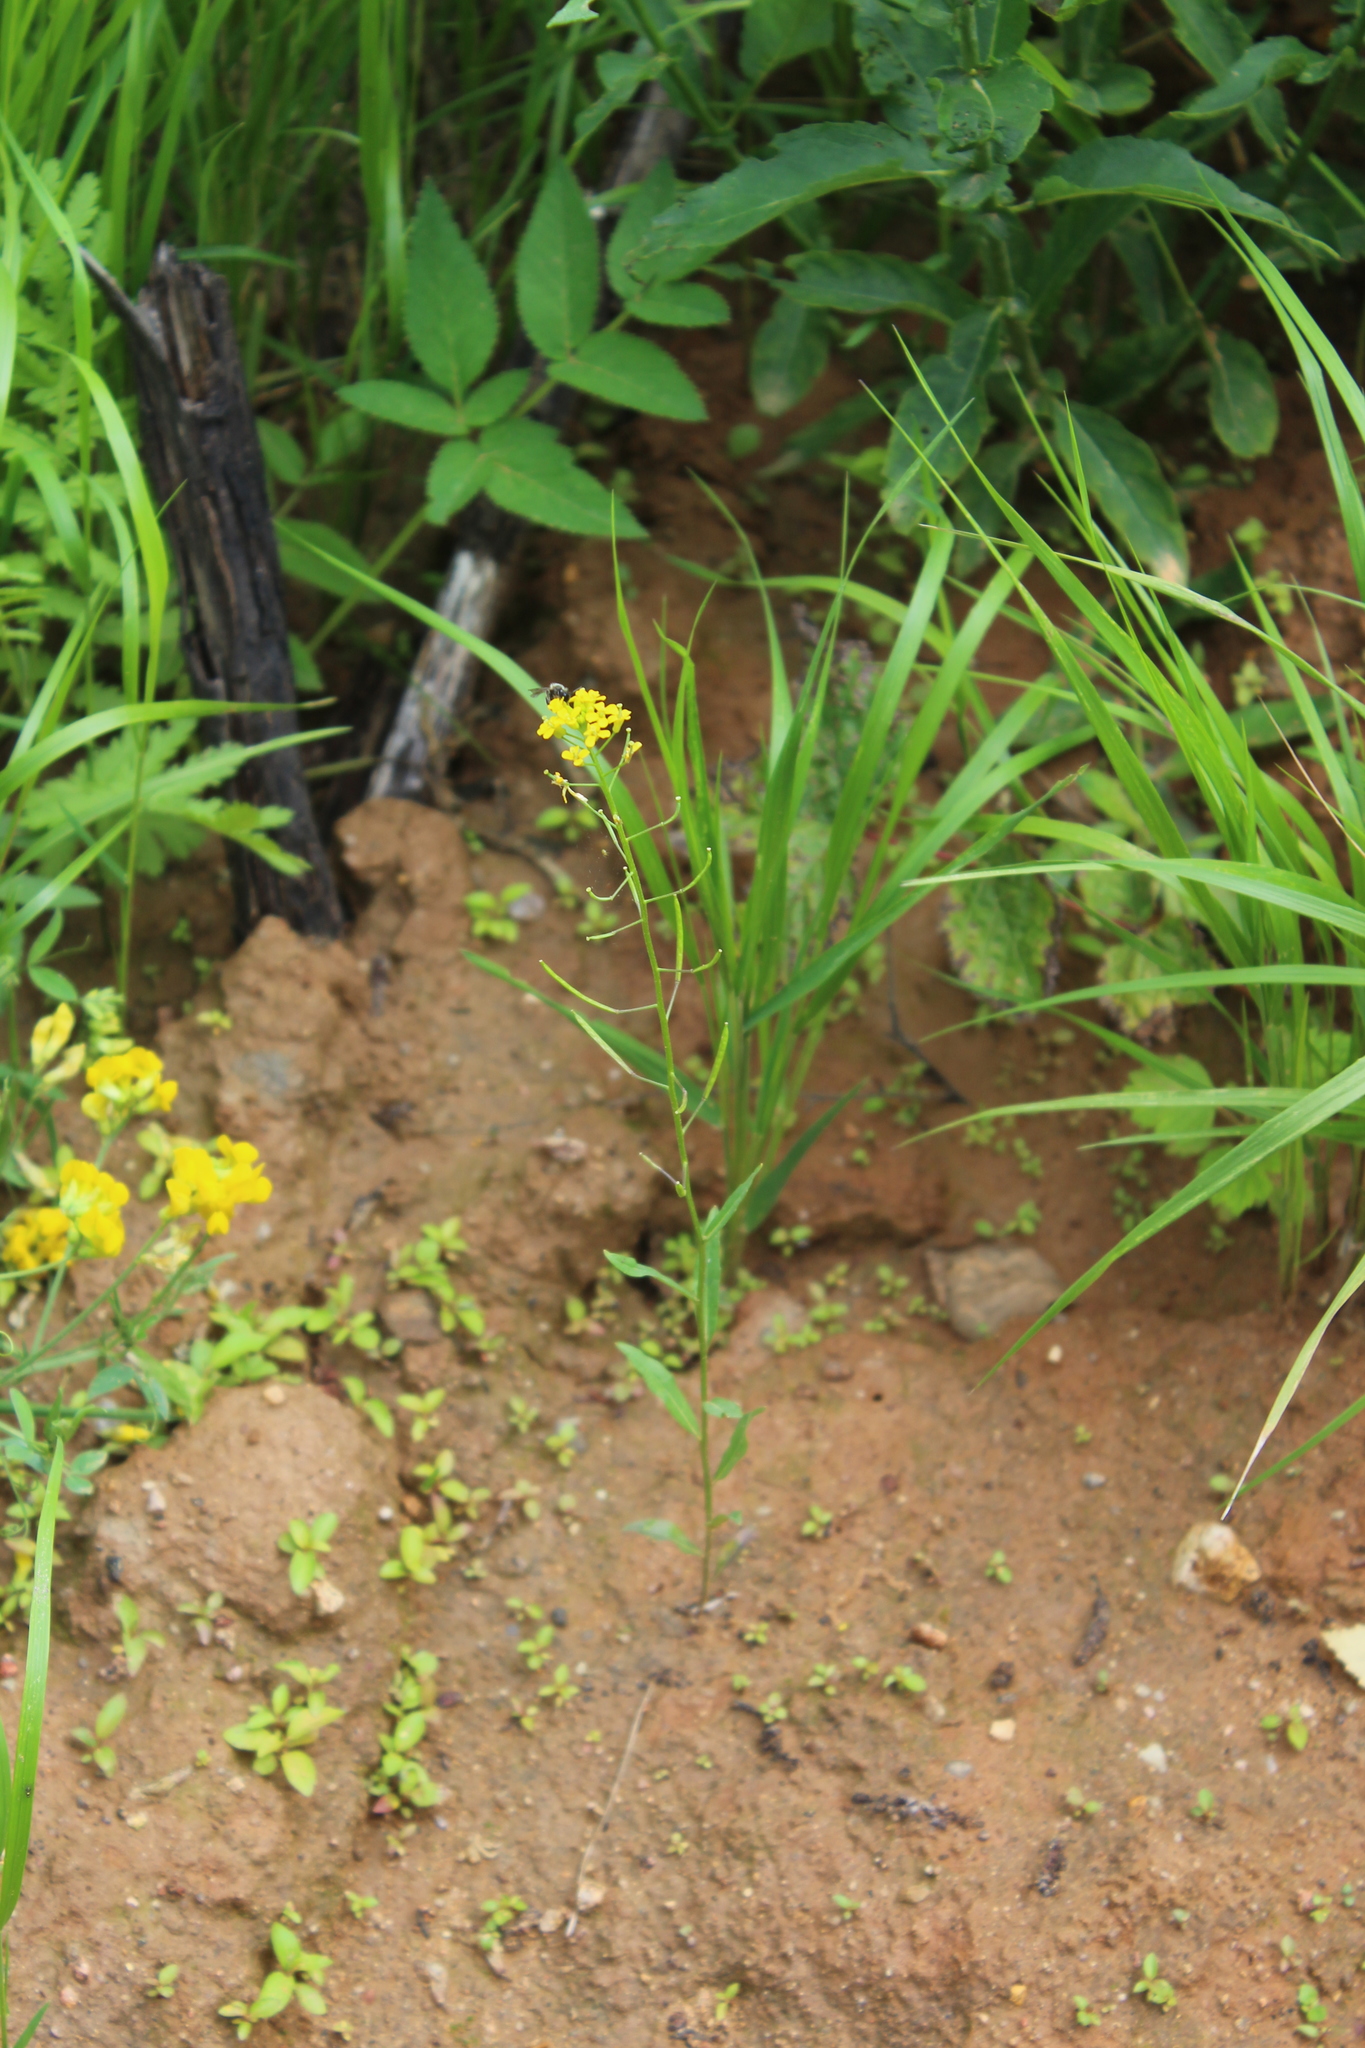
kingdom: Plantae
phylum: Tracheophyta
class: Magnoliopsida
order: Brassicales
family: Brassicaceae
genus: Erysimum
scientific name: Erysimum cheiranthoides
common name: Treacle mustard
